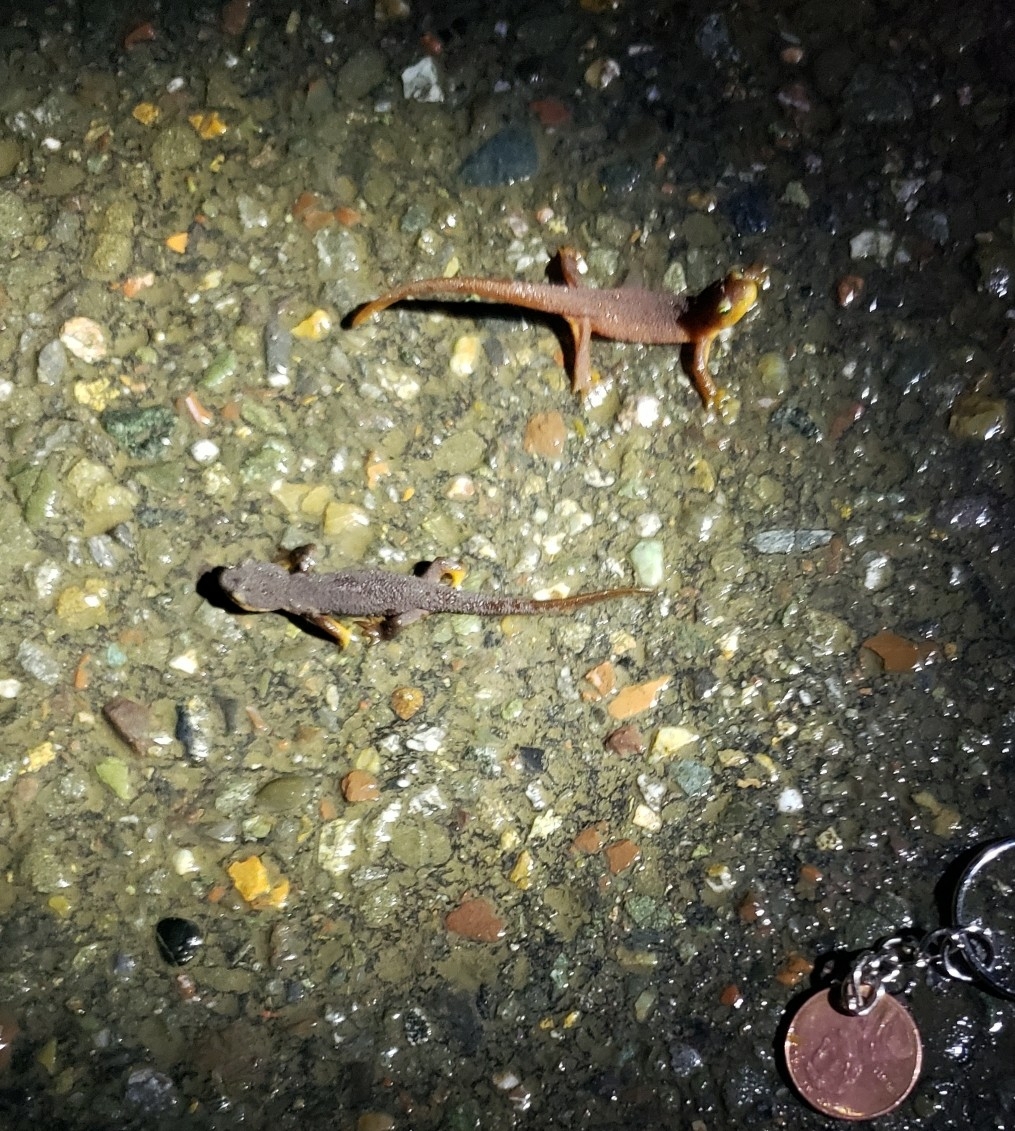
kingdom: Animalia
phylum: Chordata
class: Amphibia
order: Caudata
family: Salamandridae
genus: Taricha
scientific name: Taricha torosa
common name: California newt
